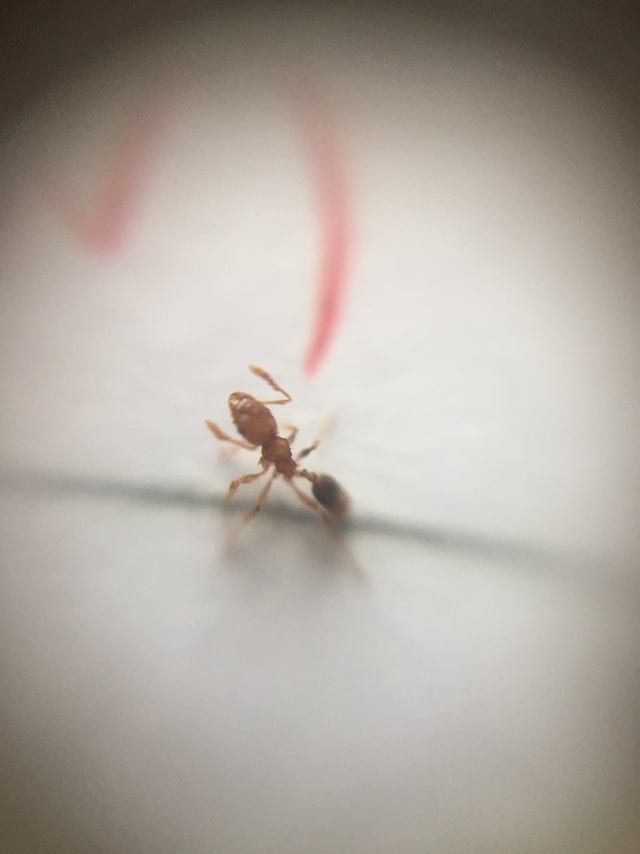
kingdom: Animalia
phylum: Arthropoda
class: Insecta
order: Hymenoptera
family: Formicidae
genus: Pheidole
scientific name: Pheidole parva
